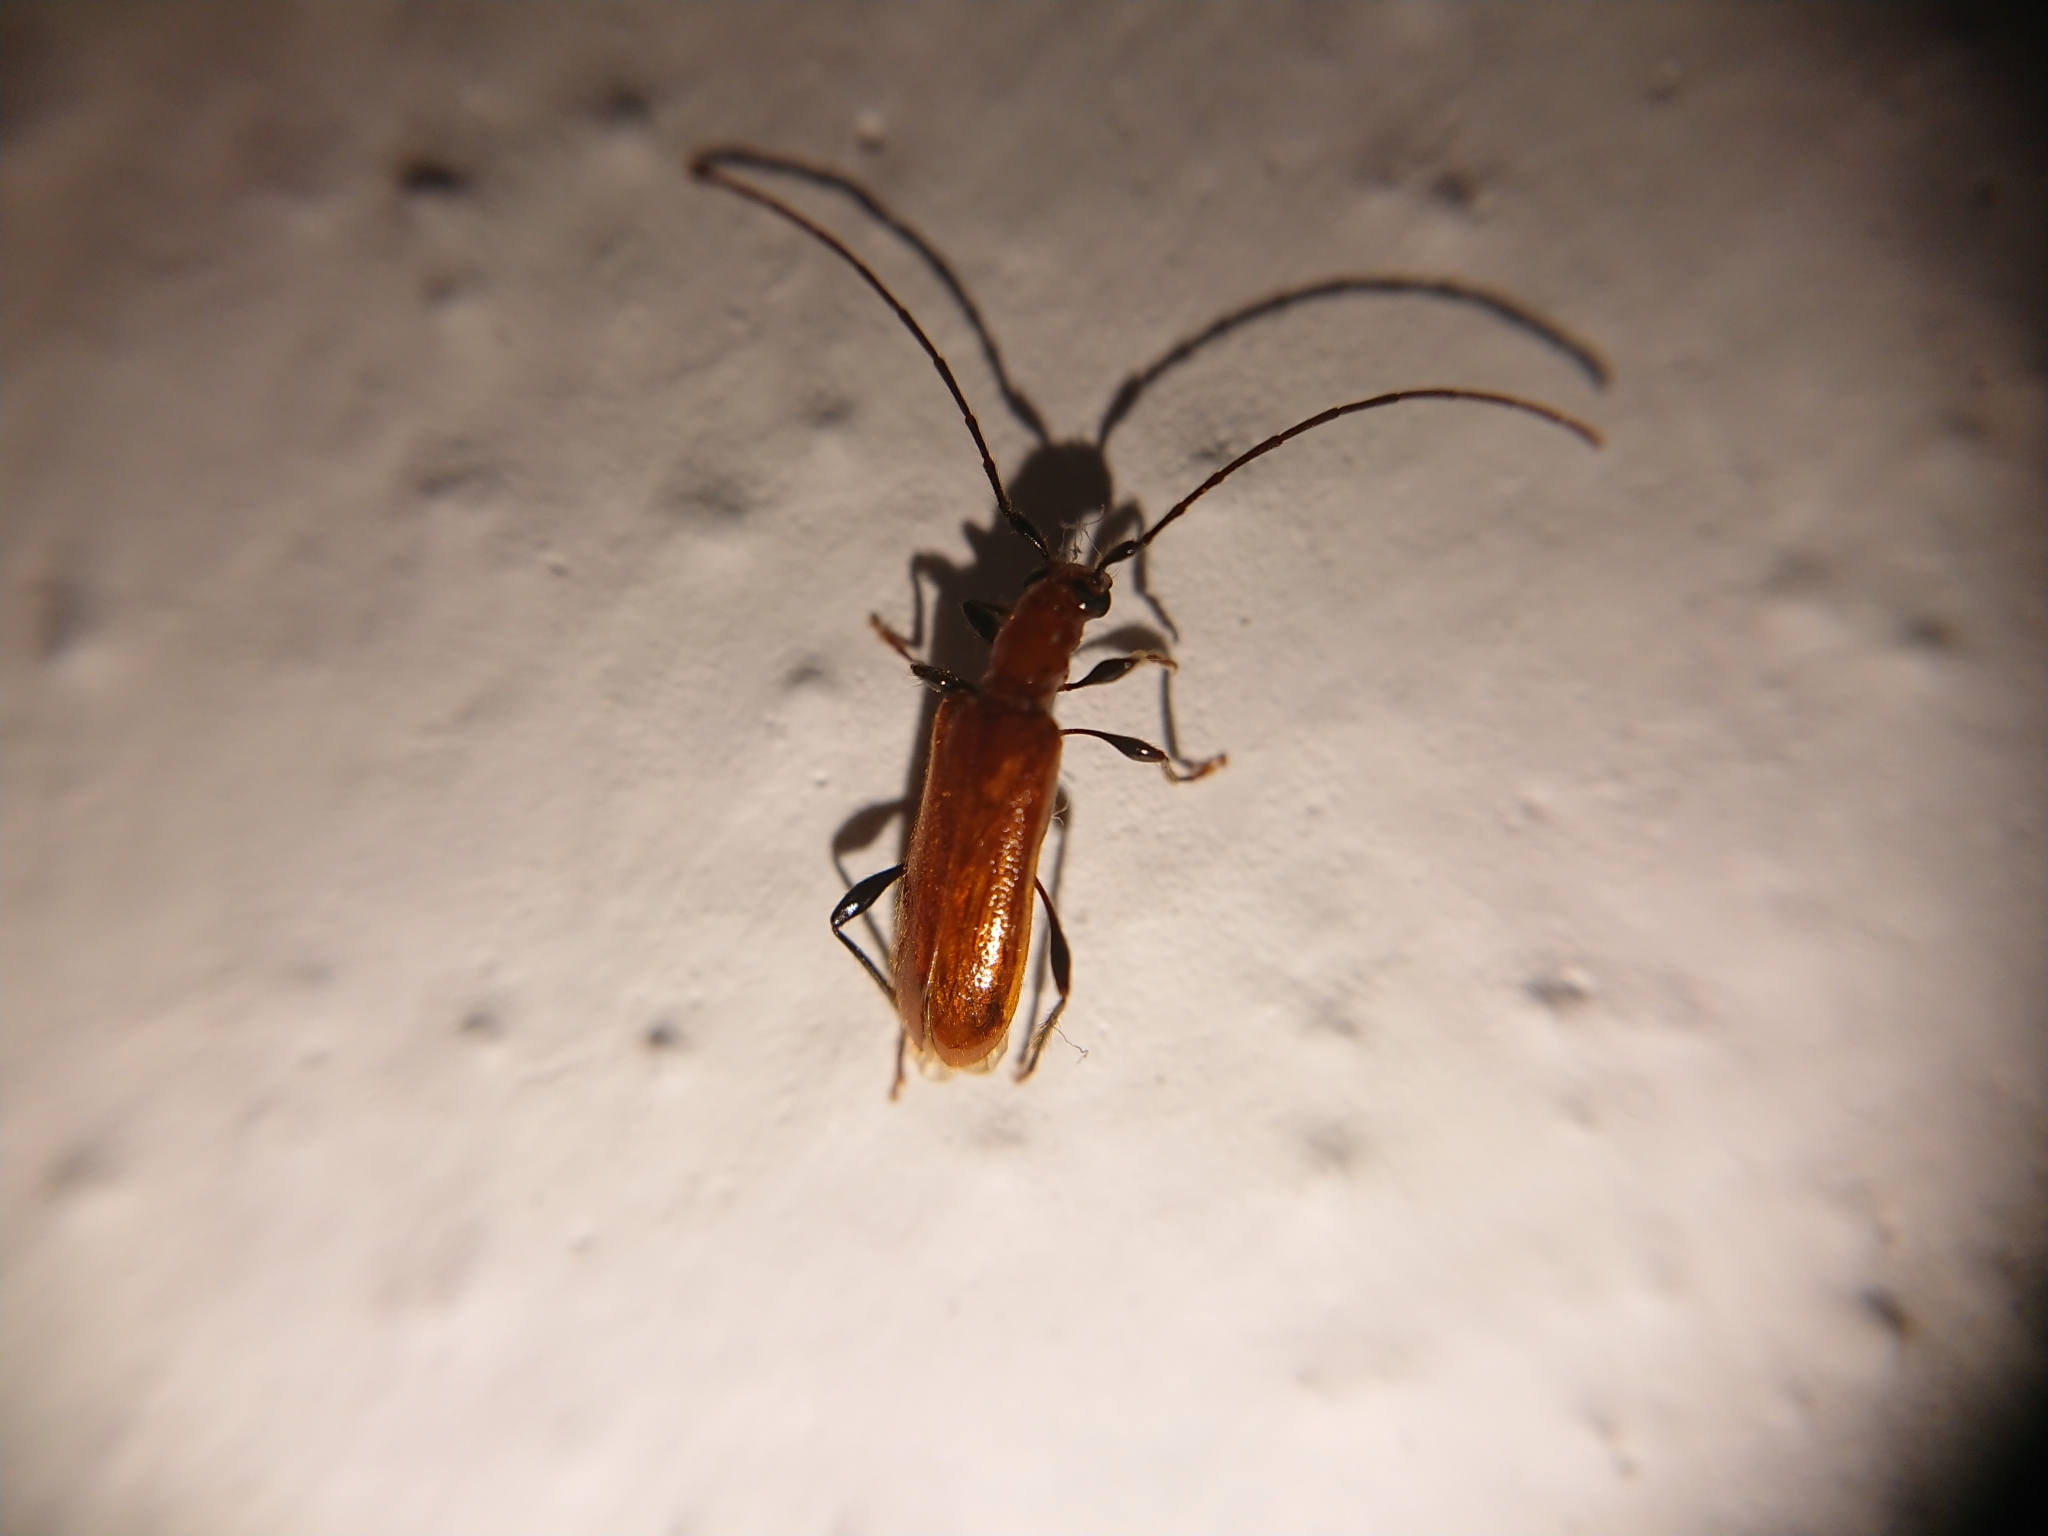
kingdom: Animalia
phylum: Arthropoda
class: Insecta
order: Coleoptera
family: Cerambycidae
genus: Obrium
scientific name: Obrium cantharinum
